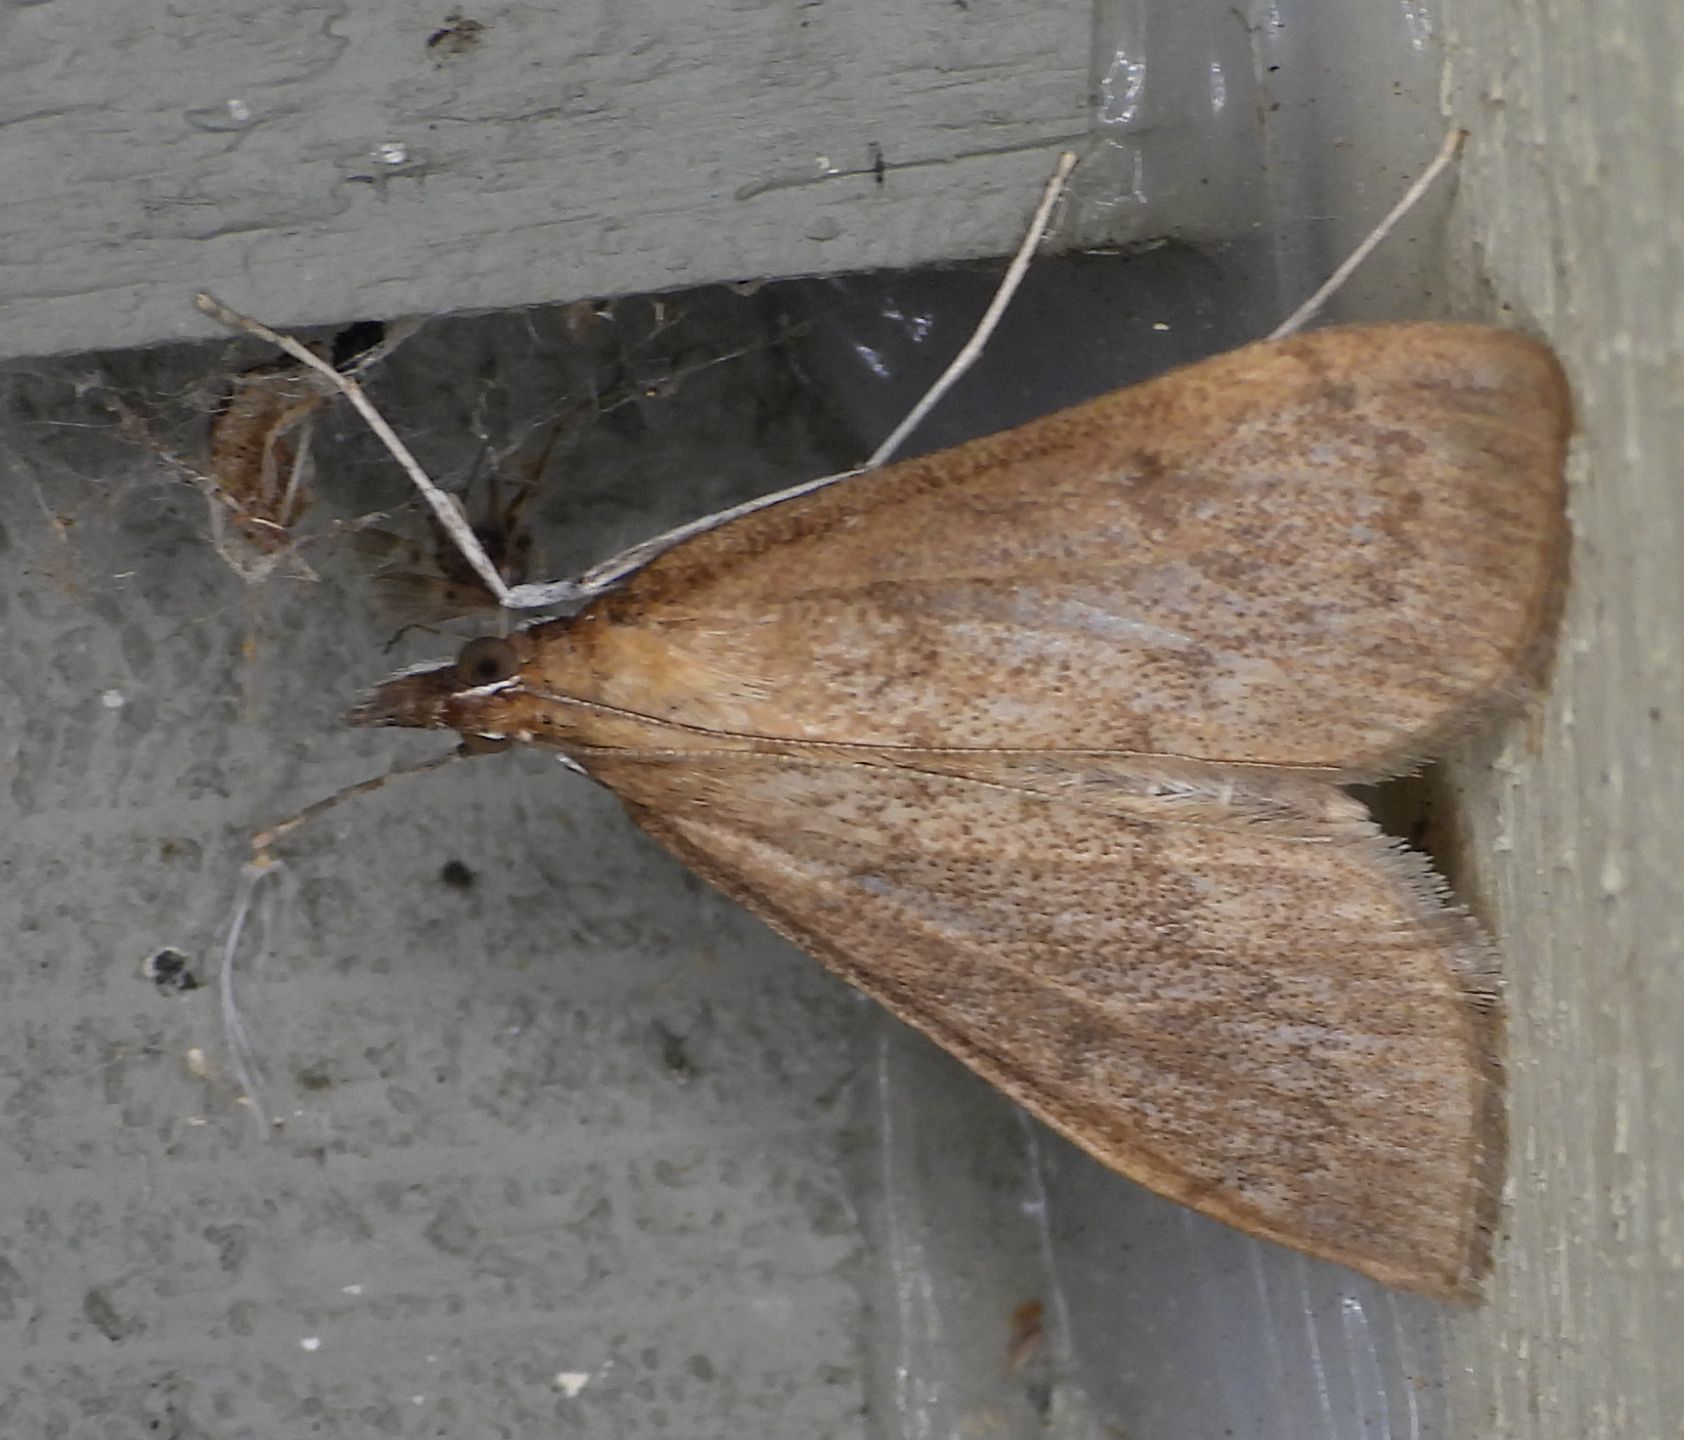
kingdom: Animalia
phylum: Arthropoda
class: Insecta
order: Lepidoptera
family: Crambidae
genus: Saucrobotys
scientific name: Saucrobotys futilalis
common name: Dogbane saucrobotys moth
